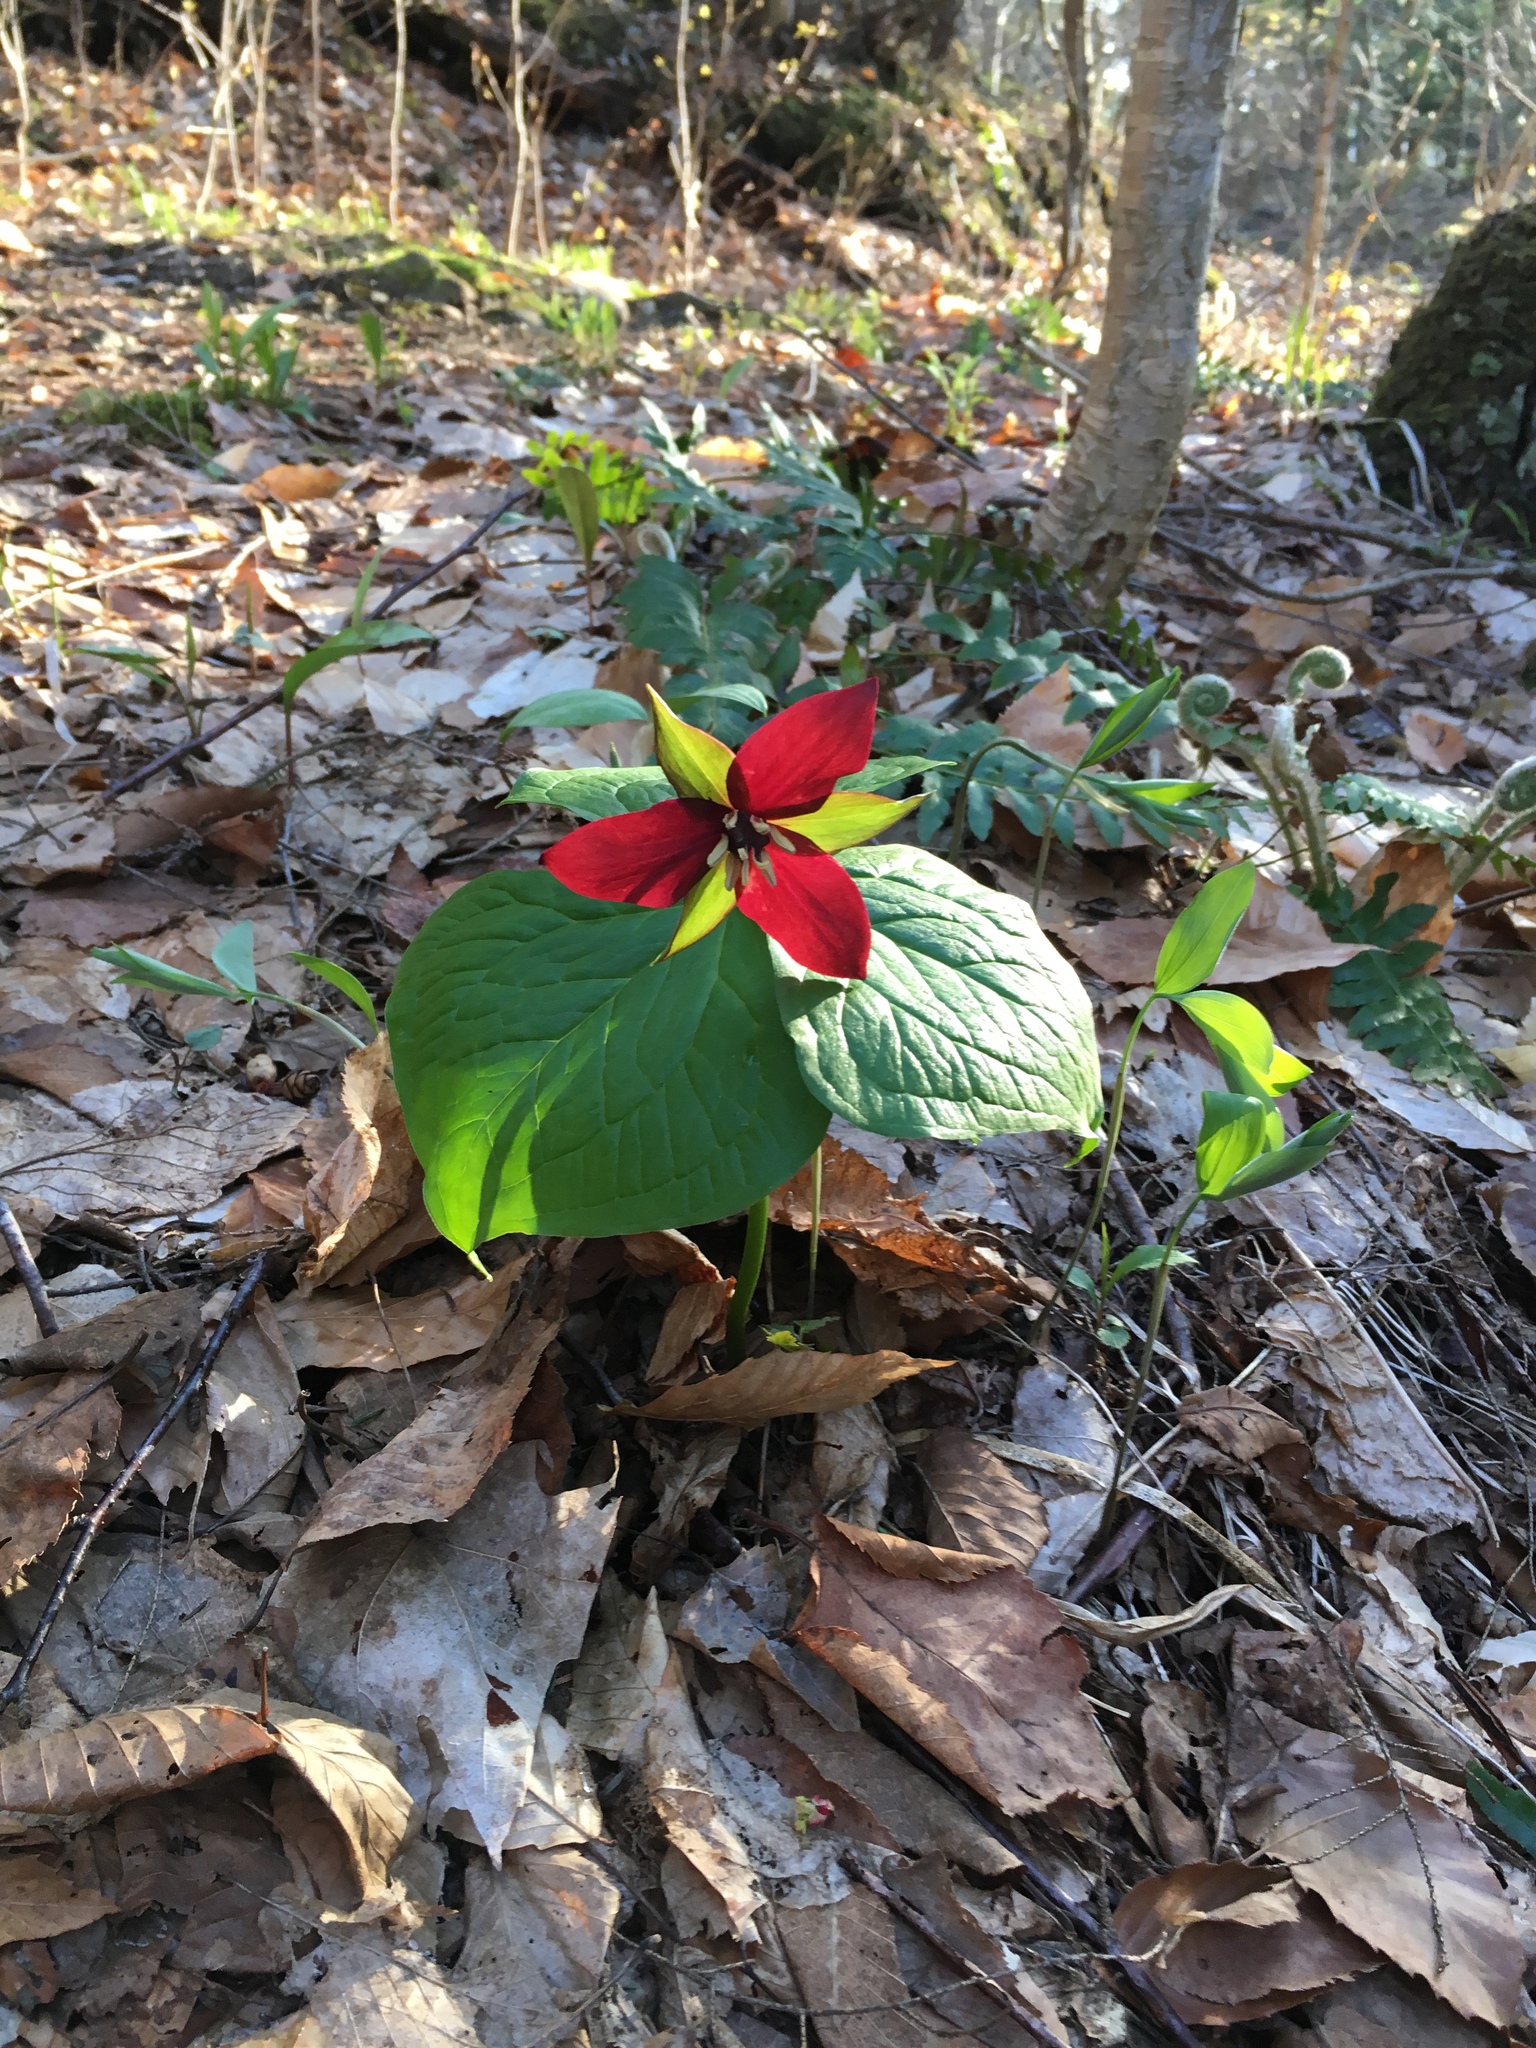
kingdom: Plantae
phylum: Tracheophyta
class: Liliopsida
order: Liliales
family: Melanthiaceae
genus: Trillium
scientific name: Trillium erectum
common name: Purple trillium
